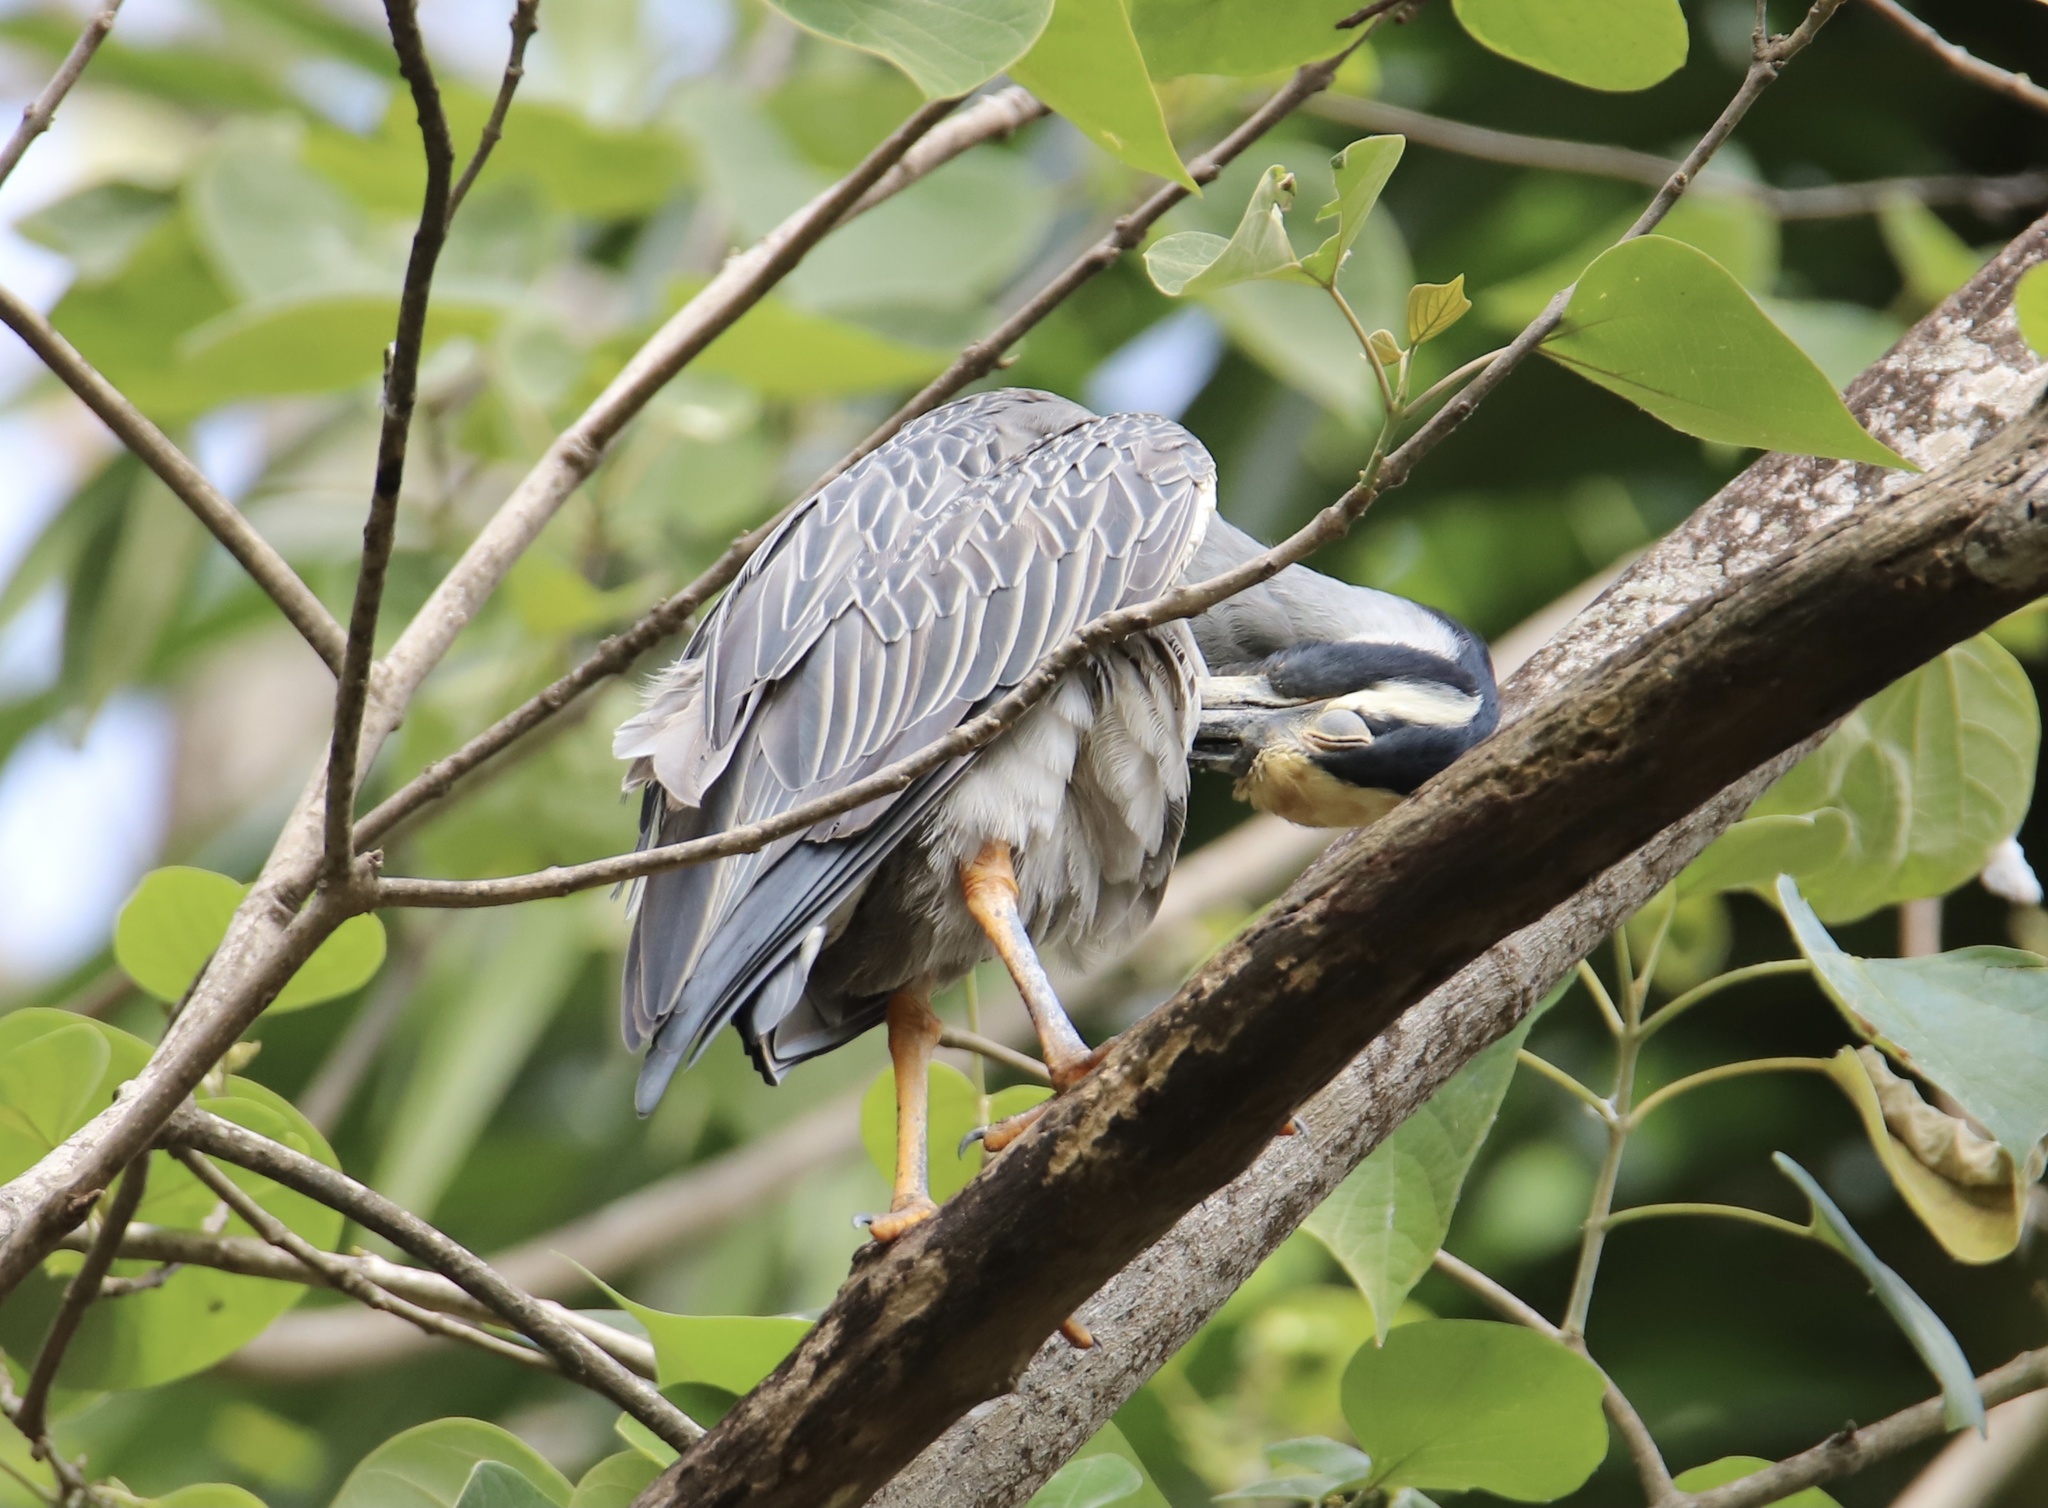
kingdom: Animalia
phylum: Chordata
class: Aves
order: Pelecaniformes
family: Ardeidae
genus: Nyctanassa
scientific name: Nyctanassa violacea
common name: Yellow-crowned night heron
